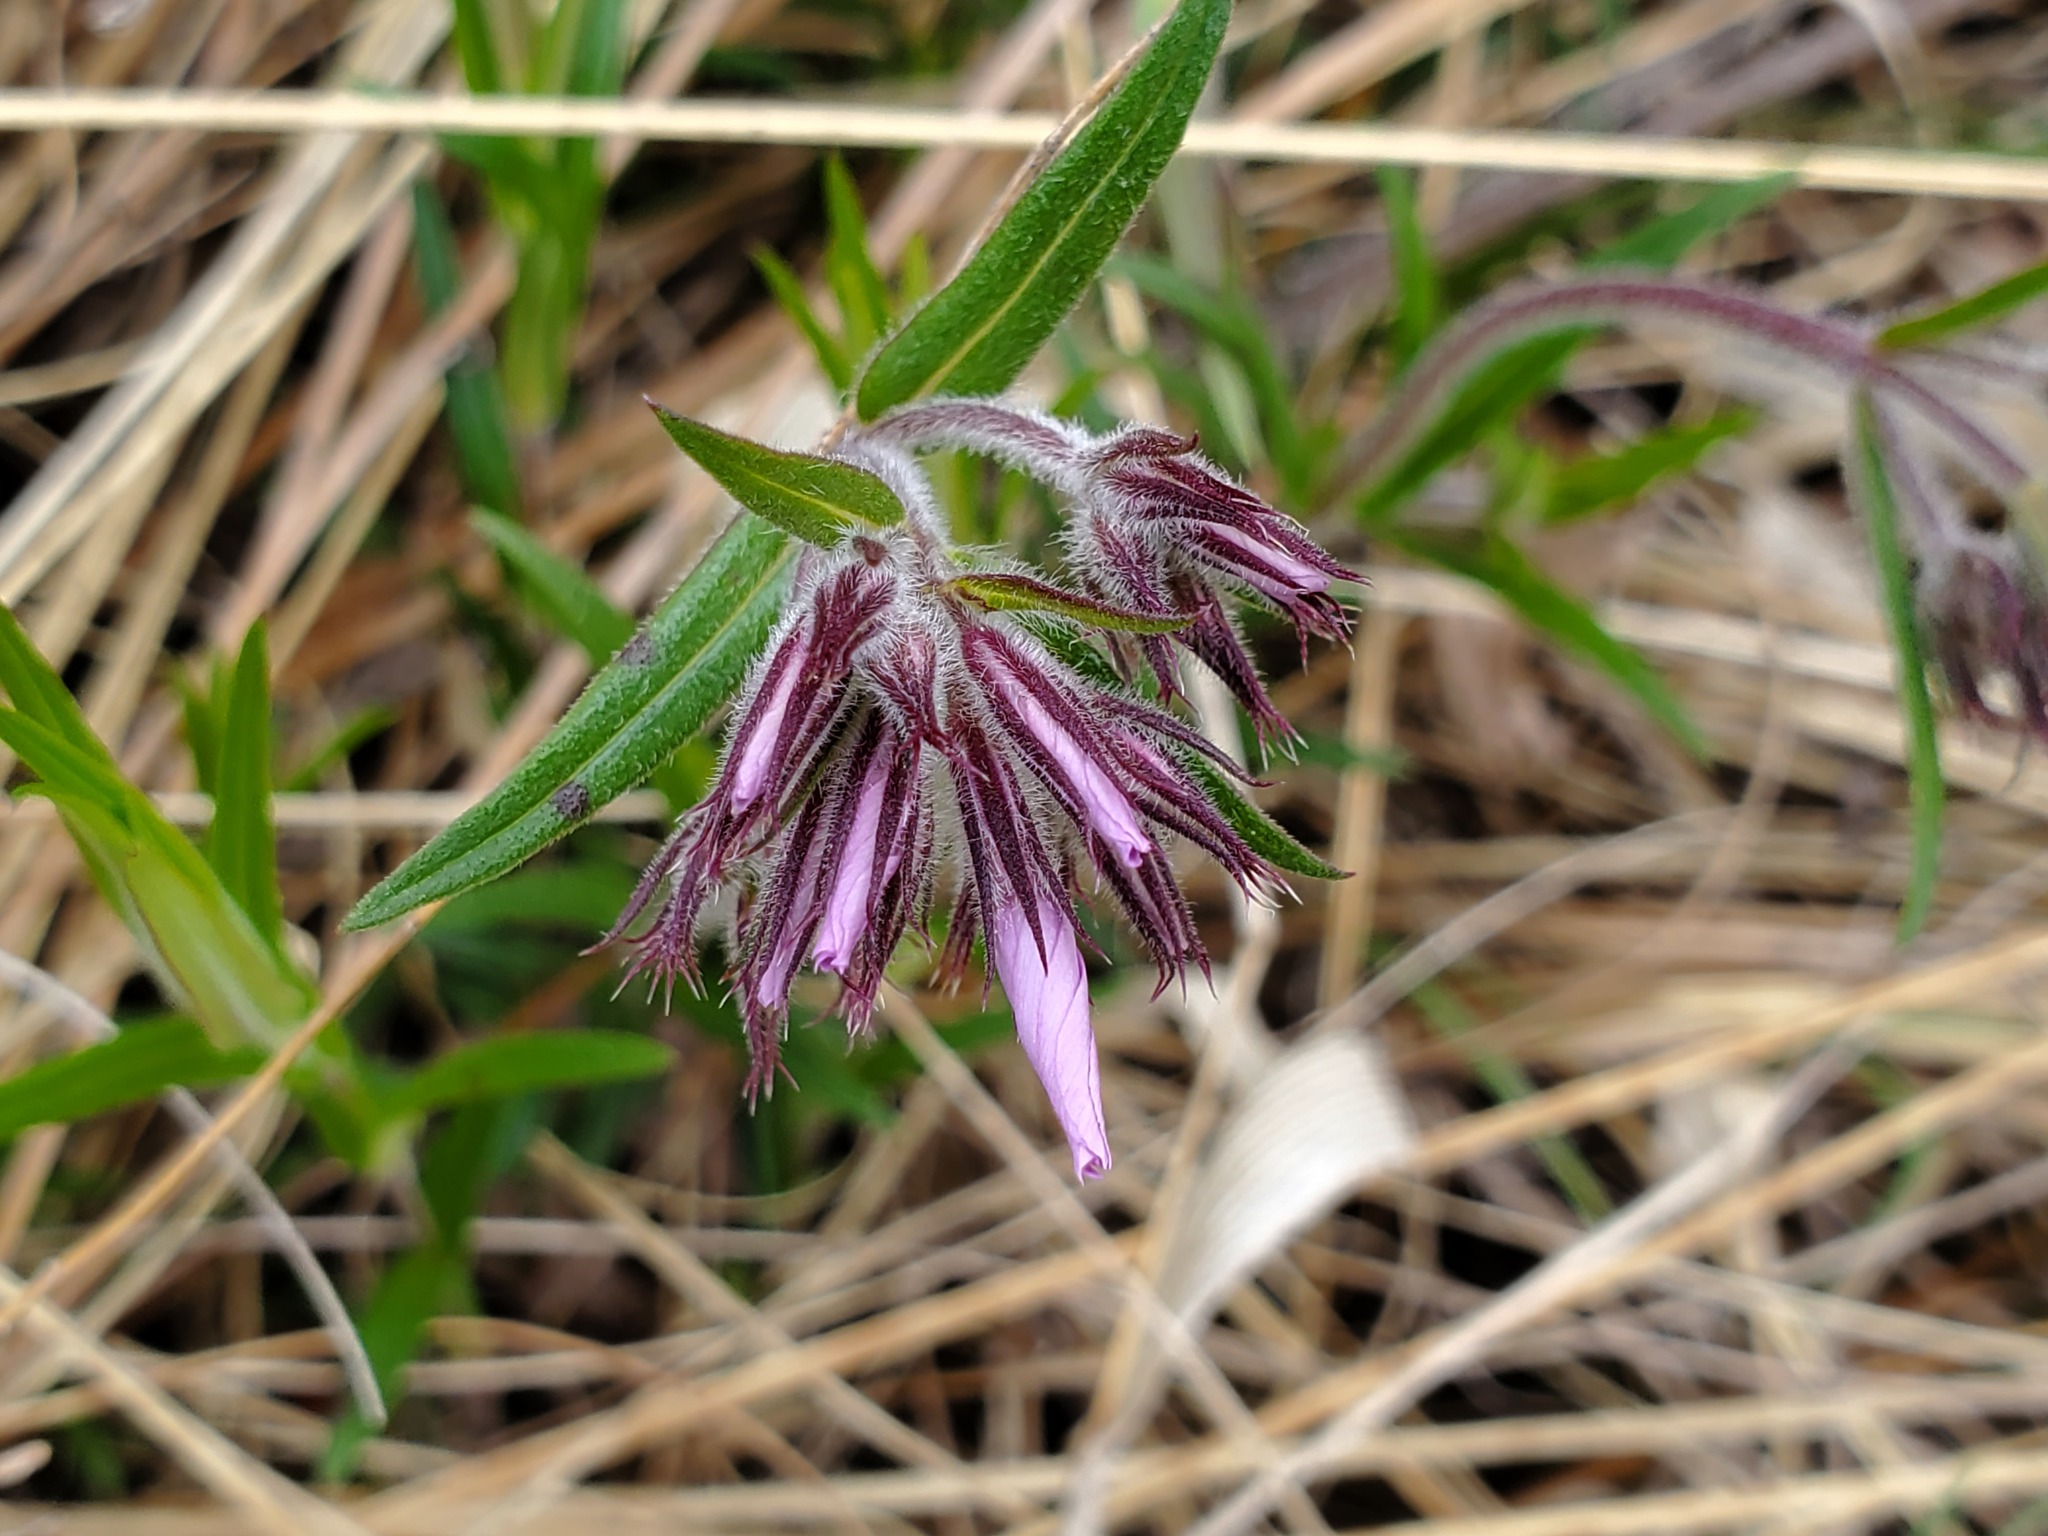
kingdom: Plantae
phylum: Tracheophyta
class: Magnoliopsida
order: Ericales
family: Polemoniaceae
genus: Phlox
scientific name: Phlox pilosa
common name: Prairie phlox
